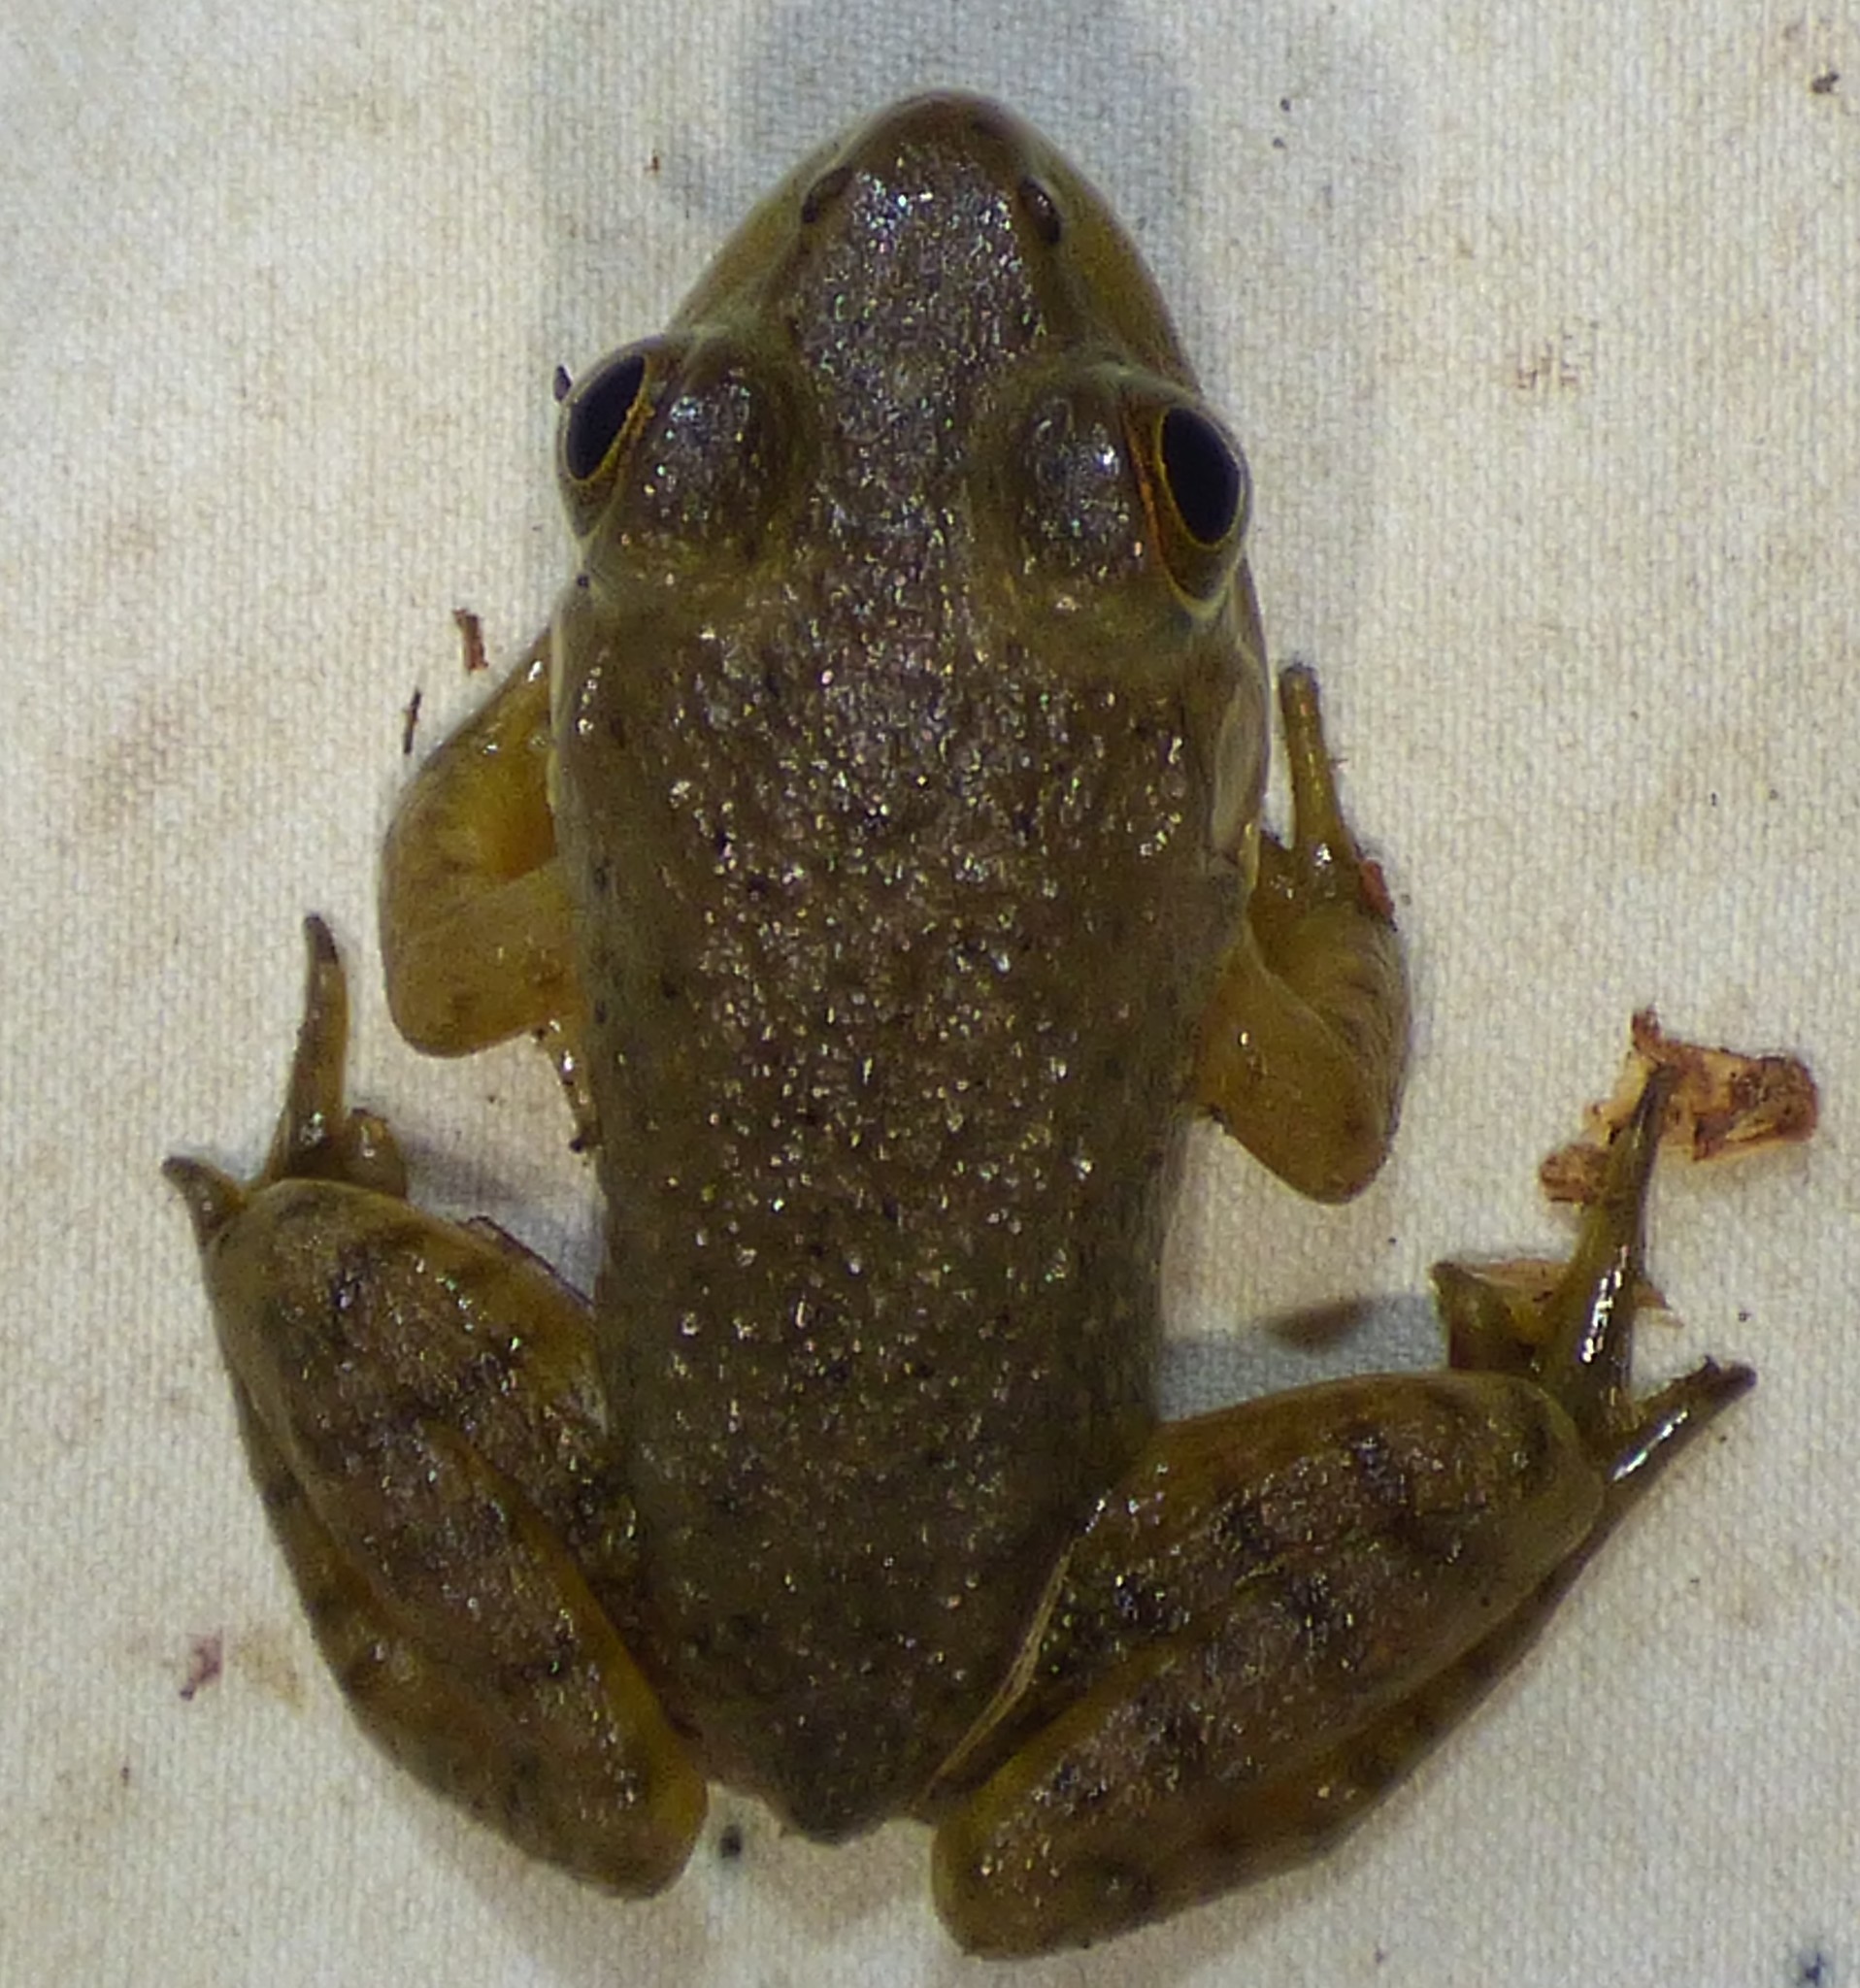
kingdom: Animalia
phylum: Chordata
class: Amphibia
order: Anura
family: Ranidae
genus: Lithobates
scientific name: Lithobates catesbeianus
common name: American bullfrog
